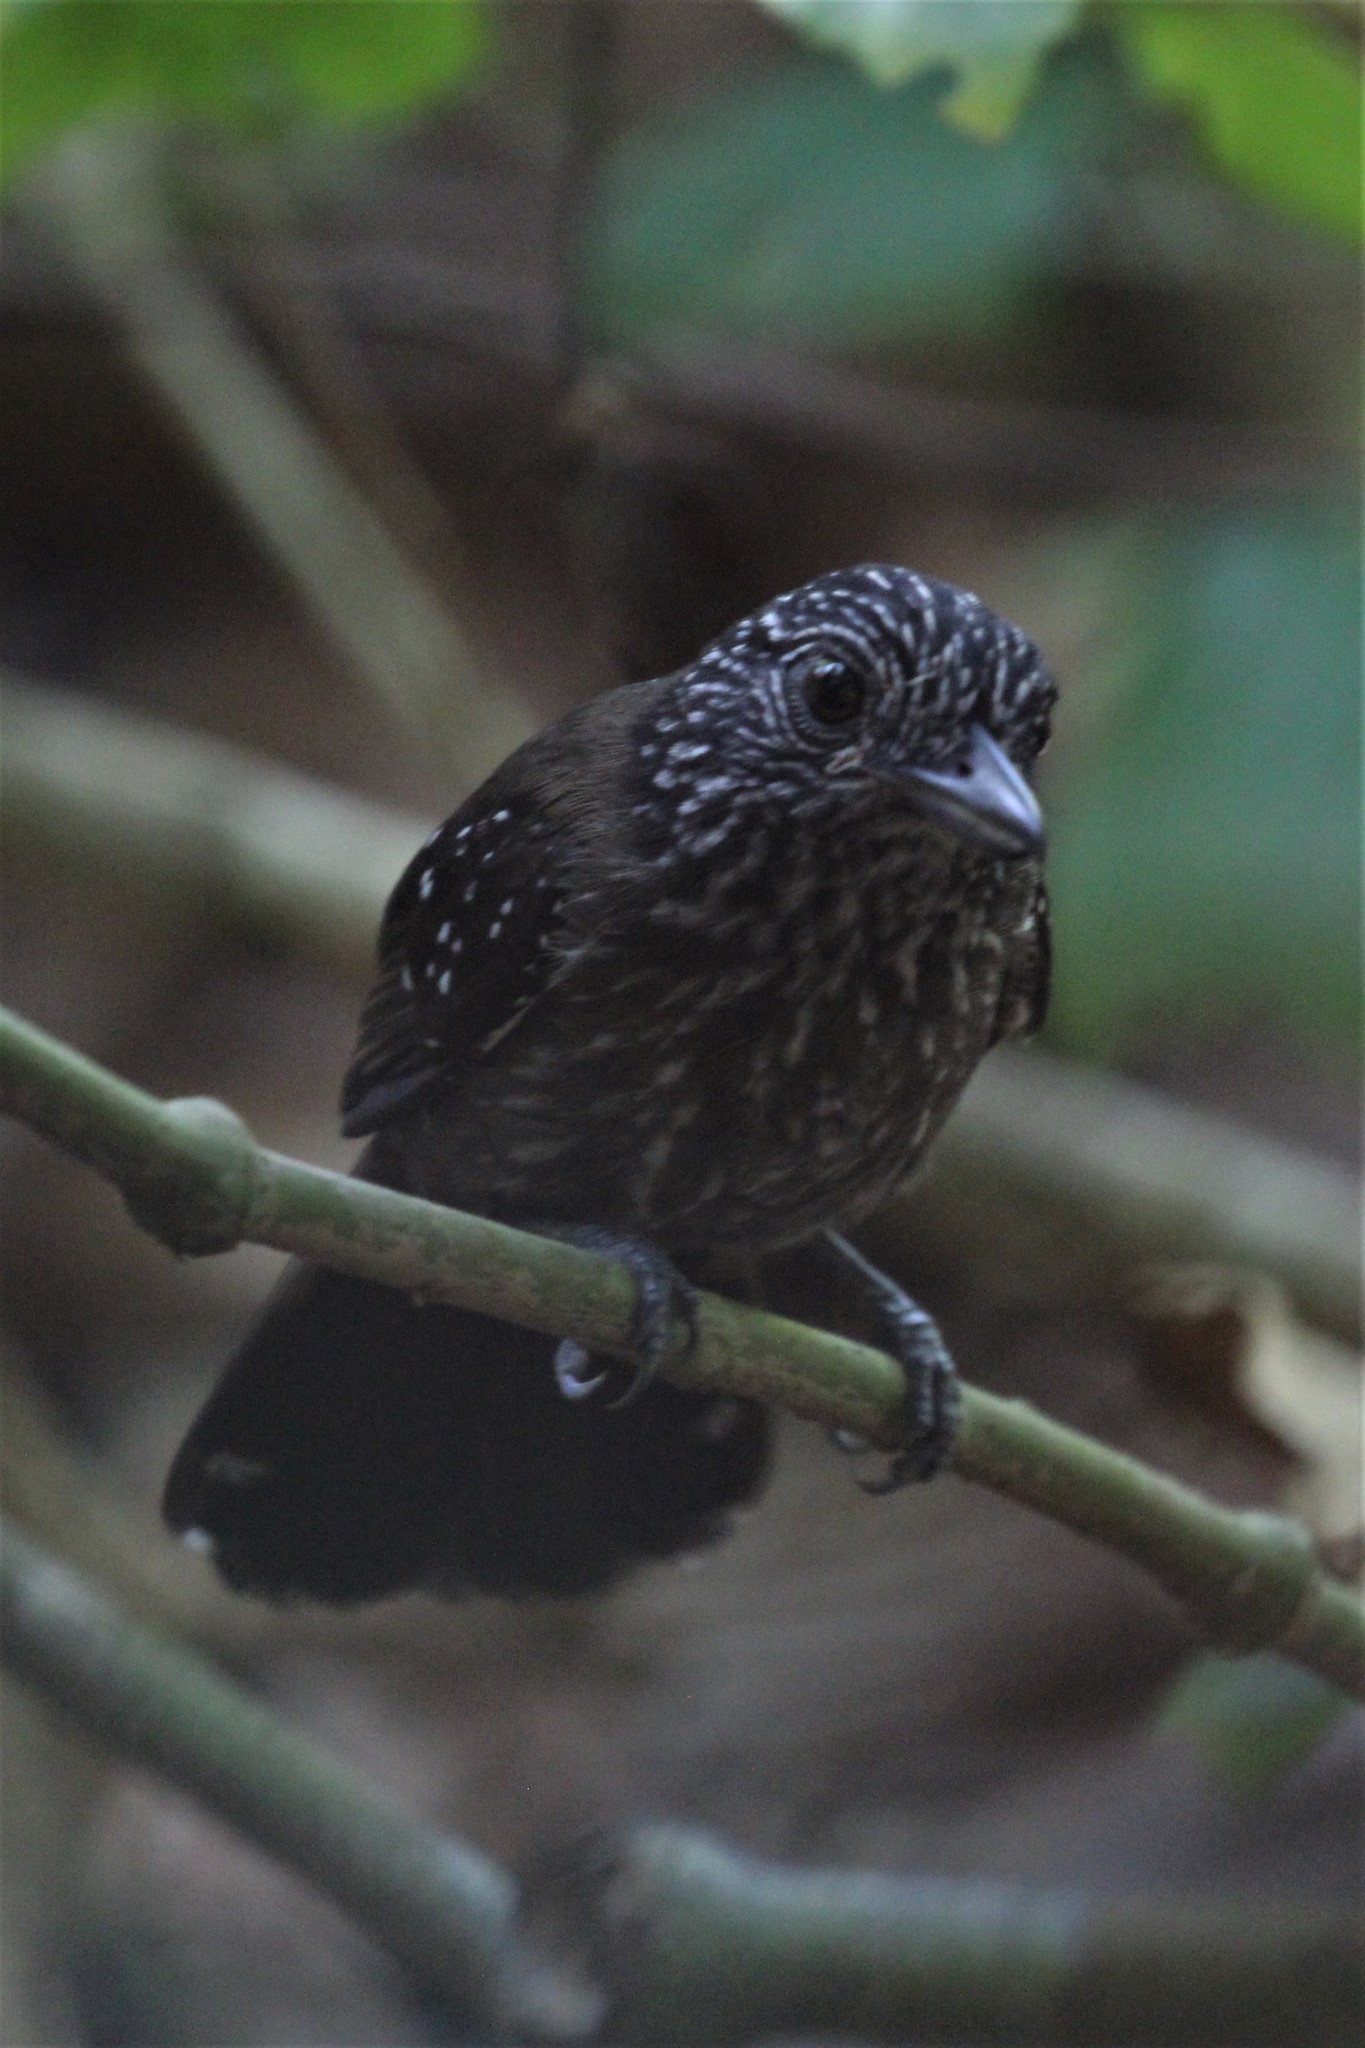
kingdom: Animalia
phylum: Chordata
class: Aves
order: Passeriformes
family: Thamnophilidae
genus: Thamnophilus
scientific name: Thamnophilus bridgesi
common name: Black-hooded antshrike
